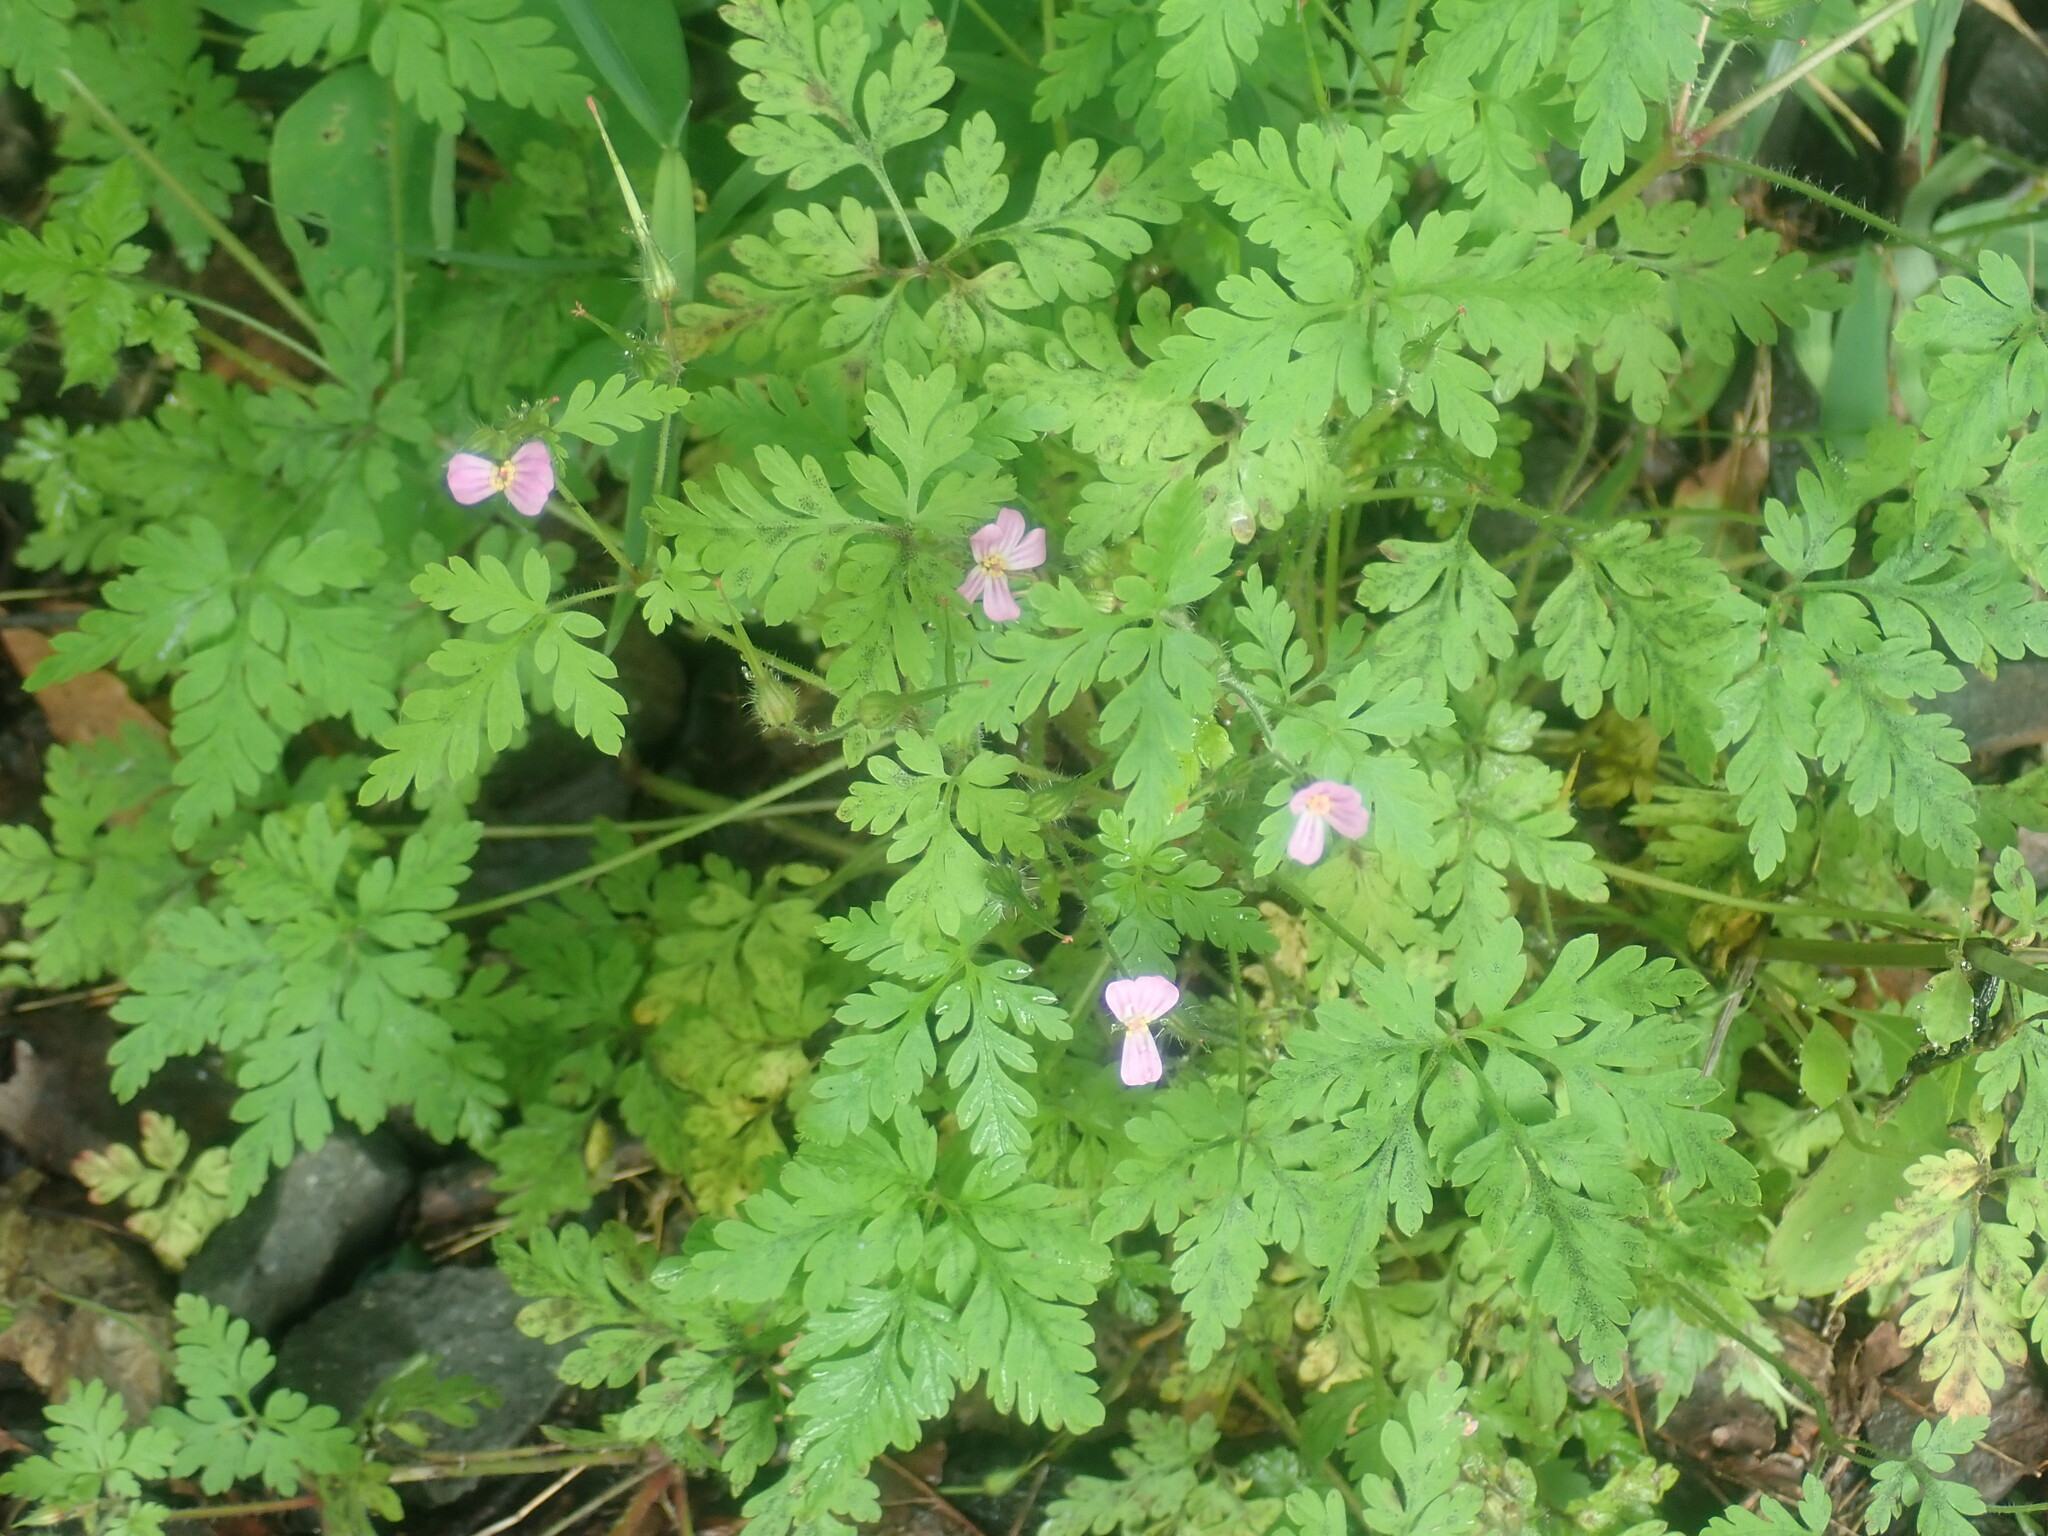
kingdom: Plantae
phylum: Tracheophyta
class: Magnoliopsida
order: Geraniales
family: Geraniaceae
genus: Geranium
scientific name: Geranium robertianum
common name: Herb-robert
